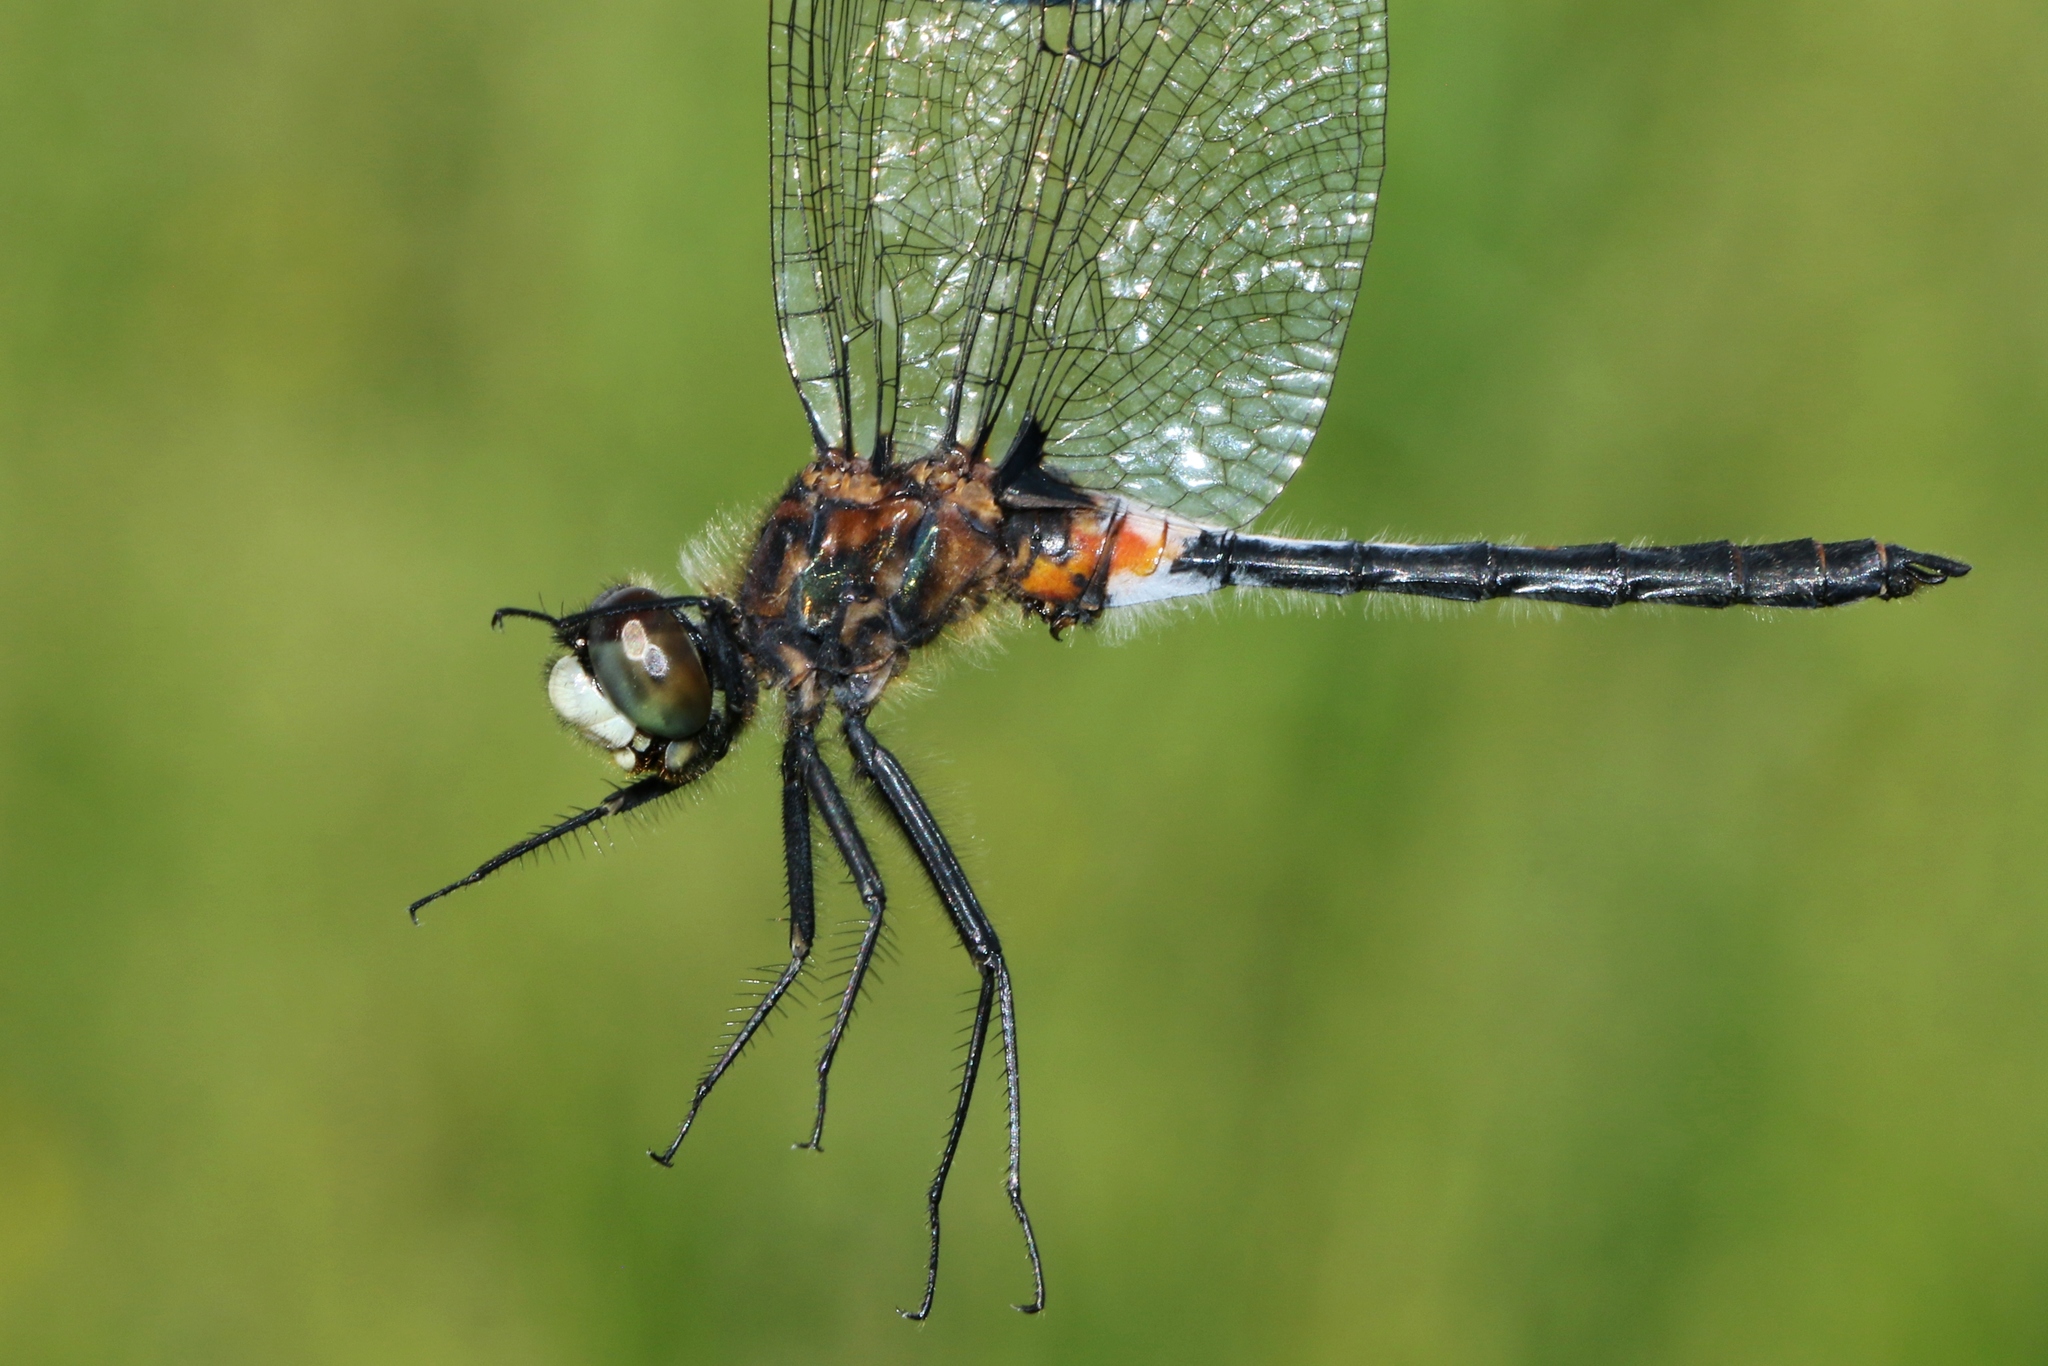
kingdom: Animalia
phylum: Arthropoda
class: Insecta
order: Odonata
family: Libellulidae
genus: Leucorrhinia
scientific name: Leucorrhinia proxima
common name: Belted whiteface
